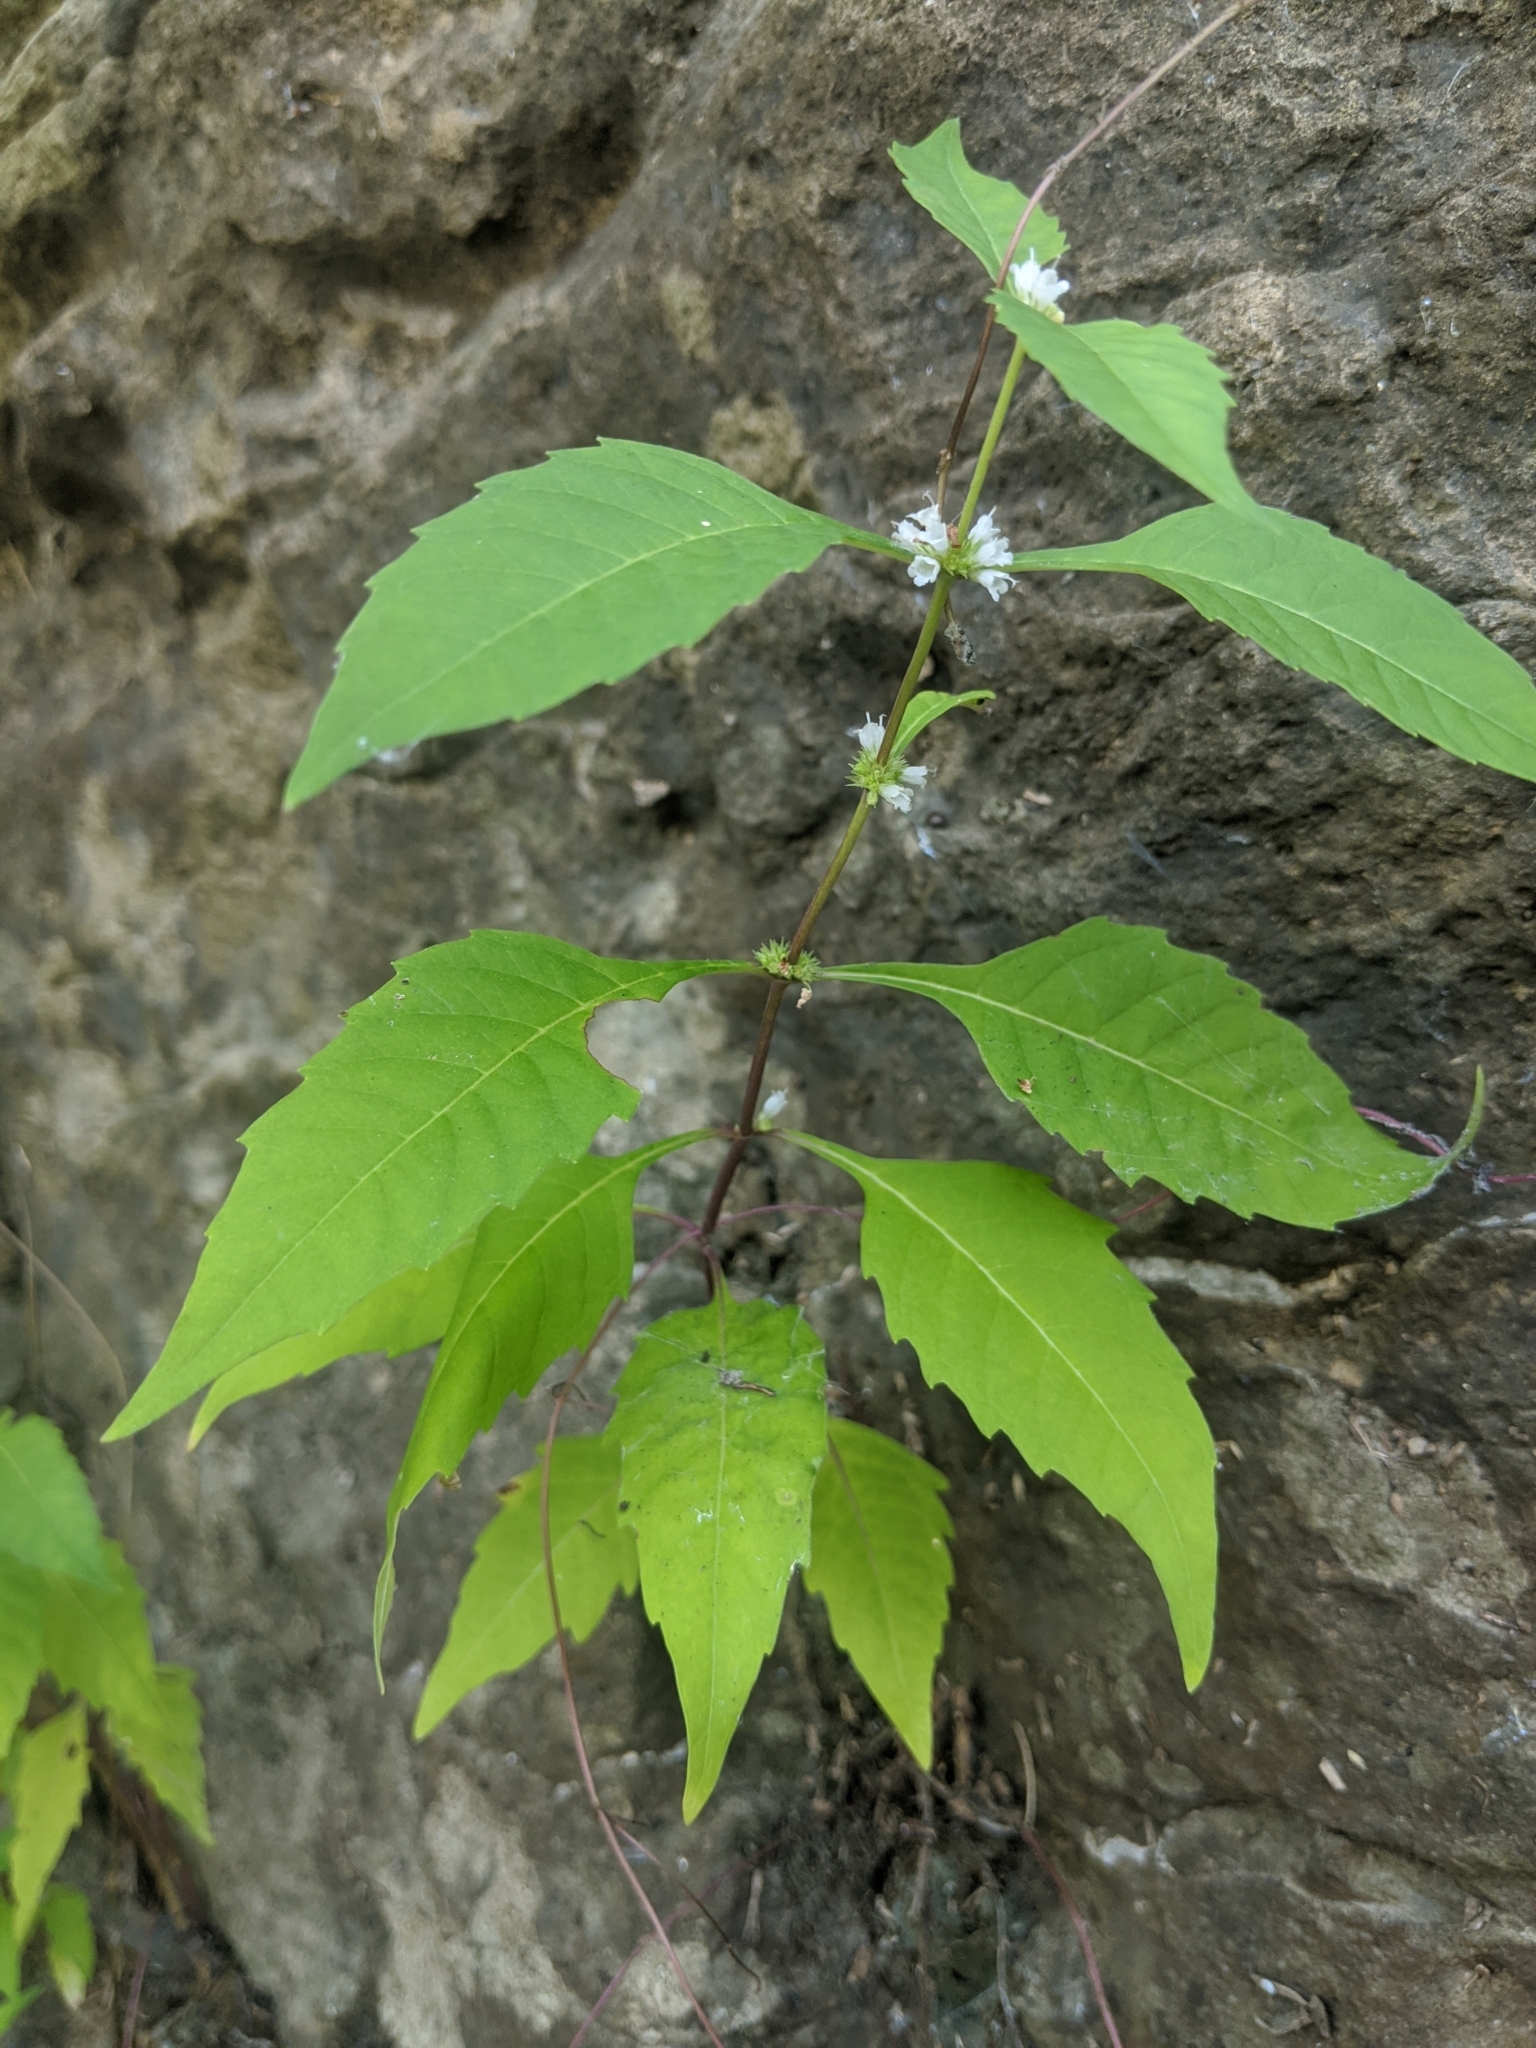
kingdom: Plantae
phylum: Tracheophyta
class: Magnoliopsida
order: Lamiales
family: Lamiaceae
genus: Lycopus
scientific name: Lycopus rubellus
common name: Stalked bugleweed
